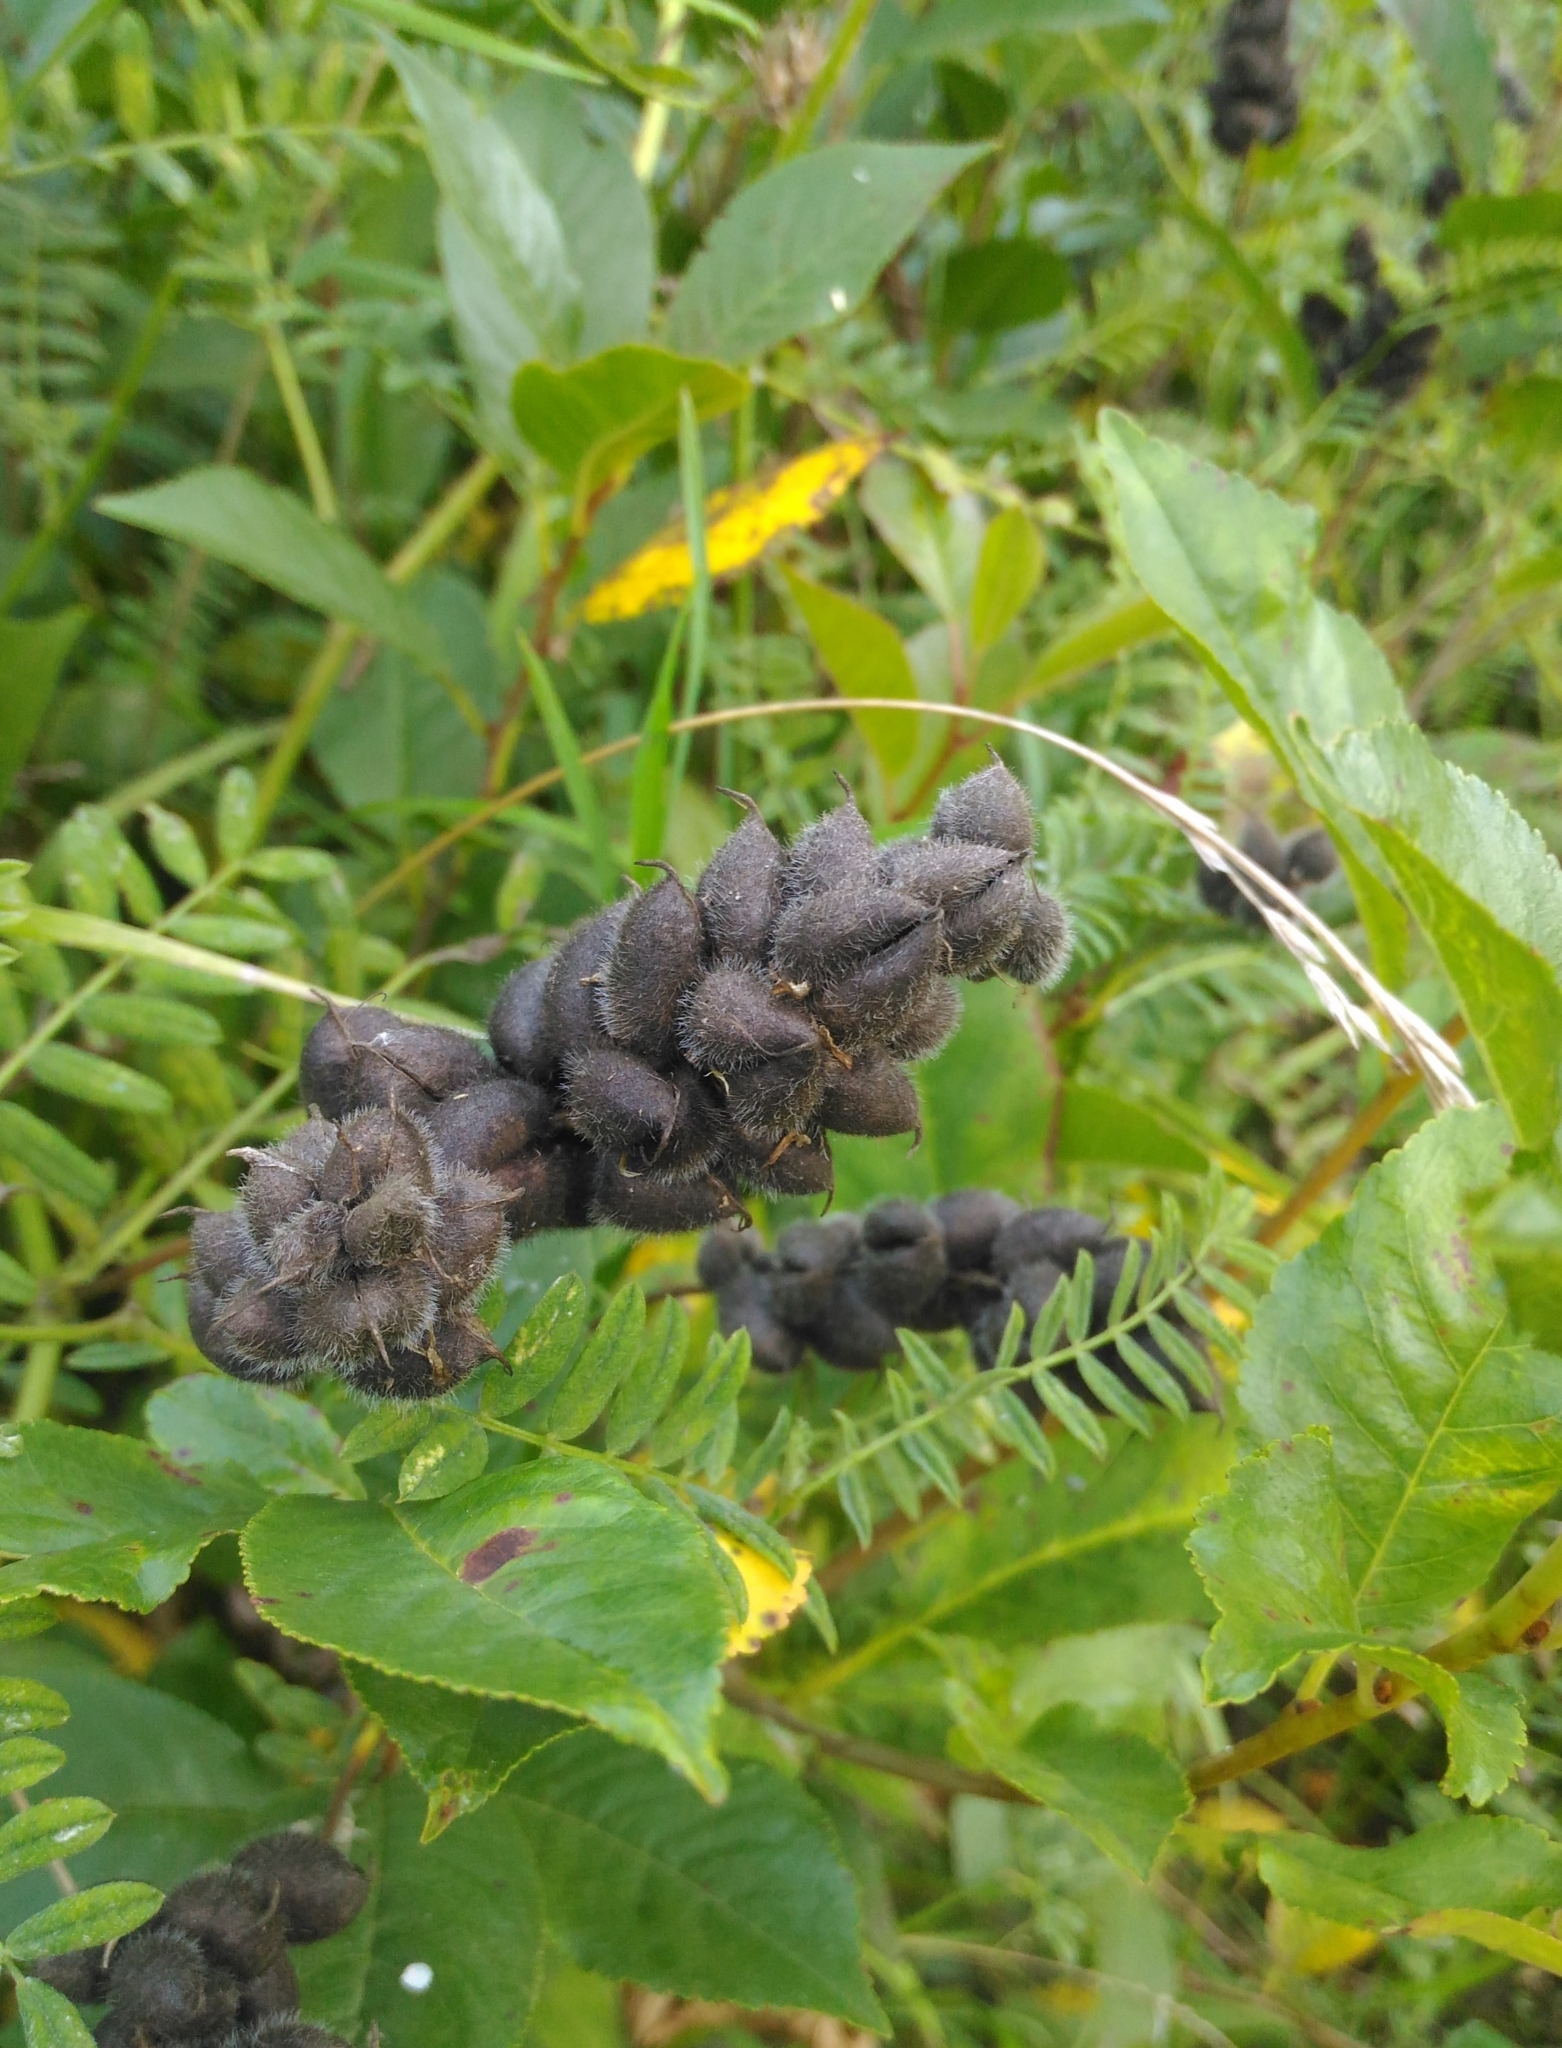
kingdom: Plantae
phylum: Tracheophyta
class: Magnoliopsida
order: Fabales
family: Fabaceae
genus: Astragalus
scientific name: Astragalus cicer
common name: Chick-pea milk-vetch
